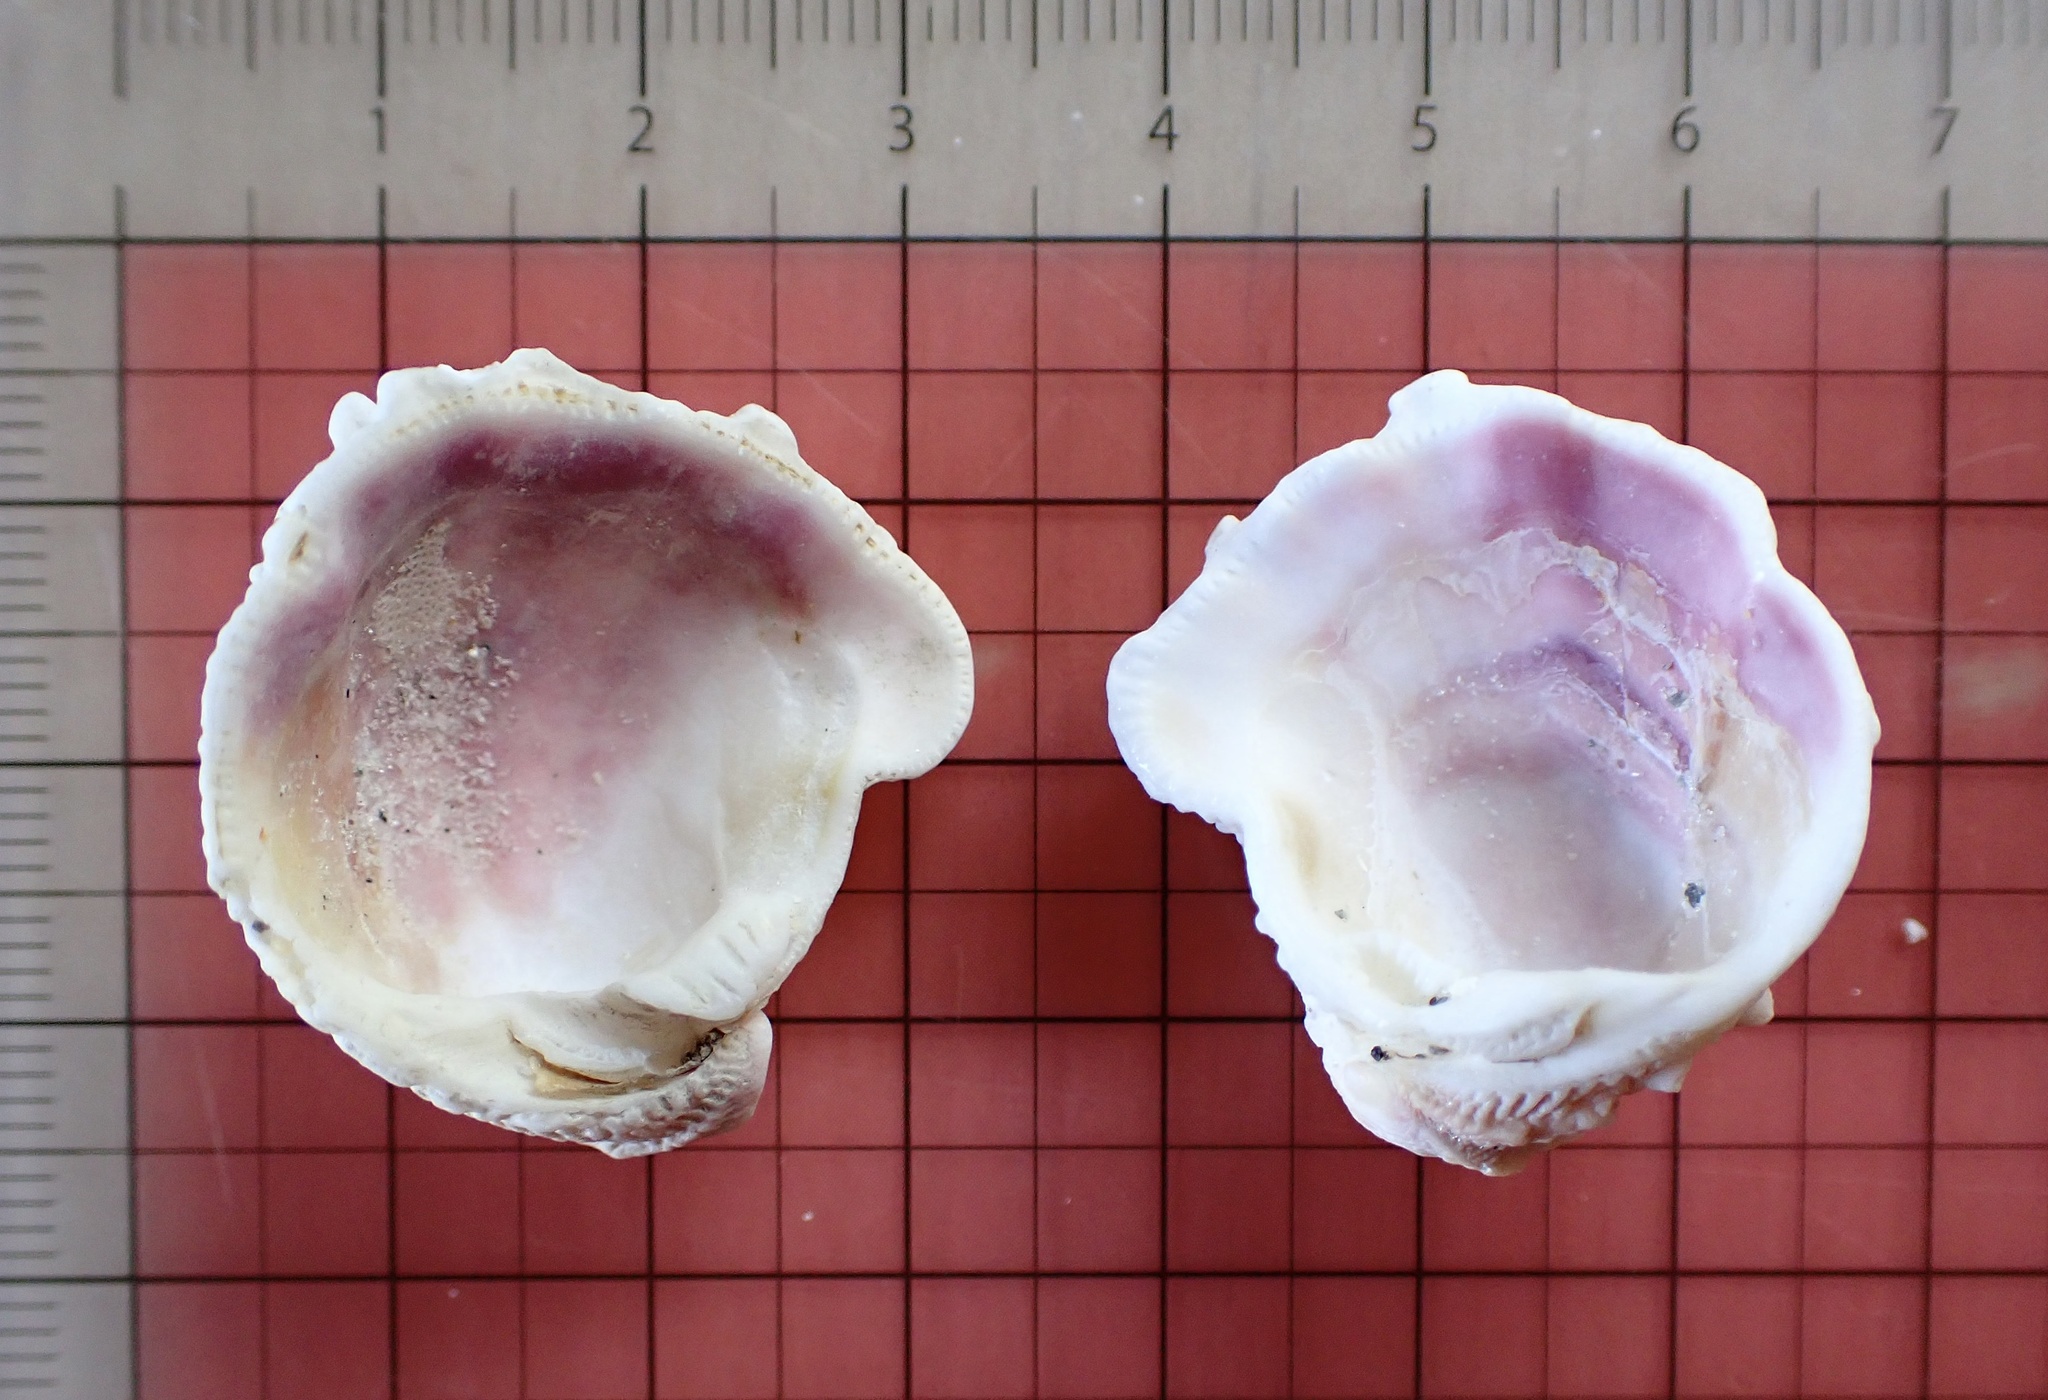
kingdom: Animalia
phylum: Mollusca
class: Bivalvia
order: Venerida
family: Chamidae
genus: Arcinella
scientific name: Arcinella cornuta
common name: Florida spiny jewel box
